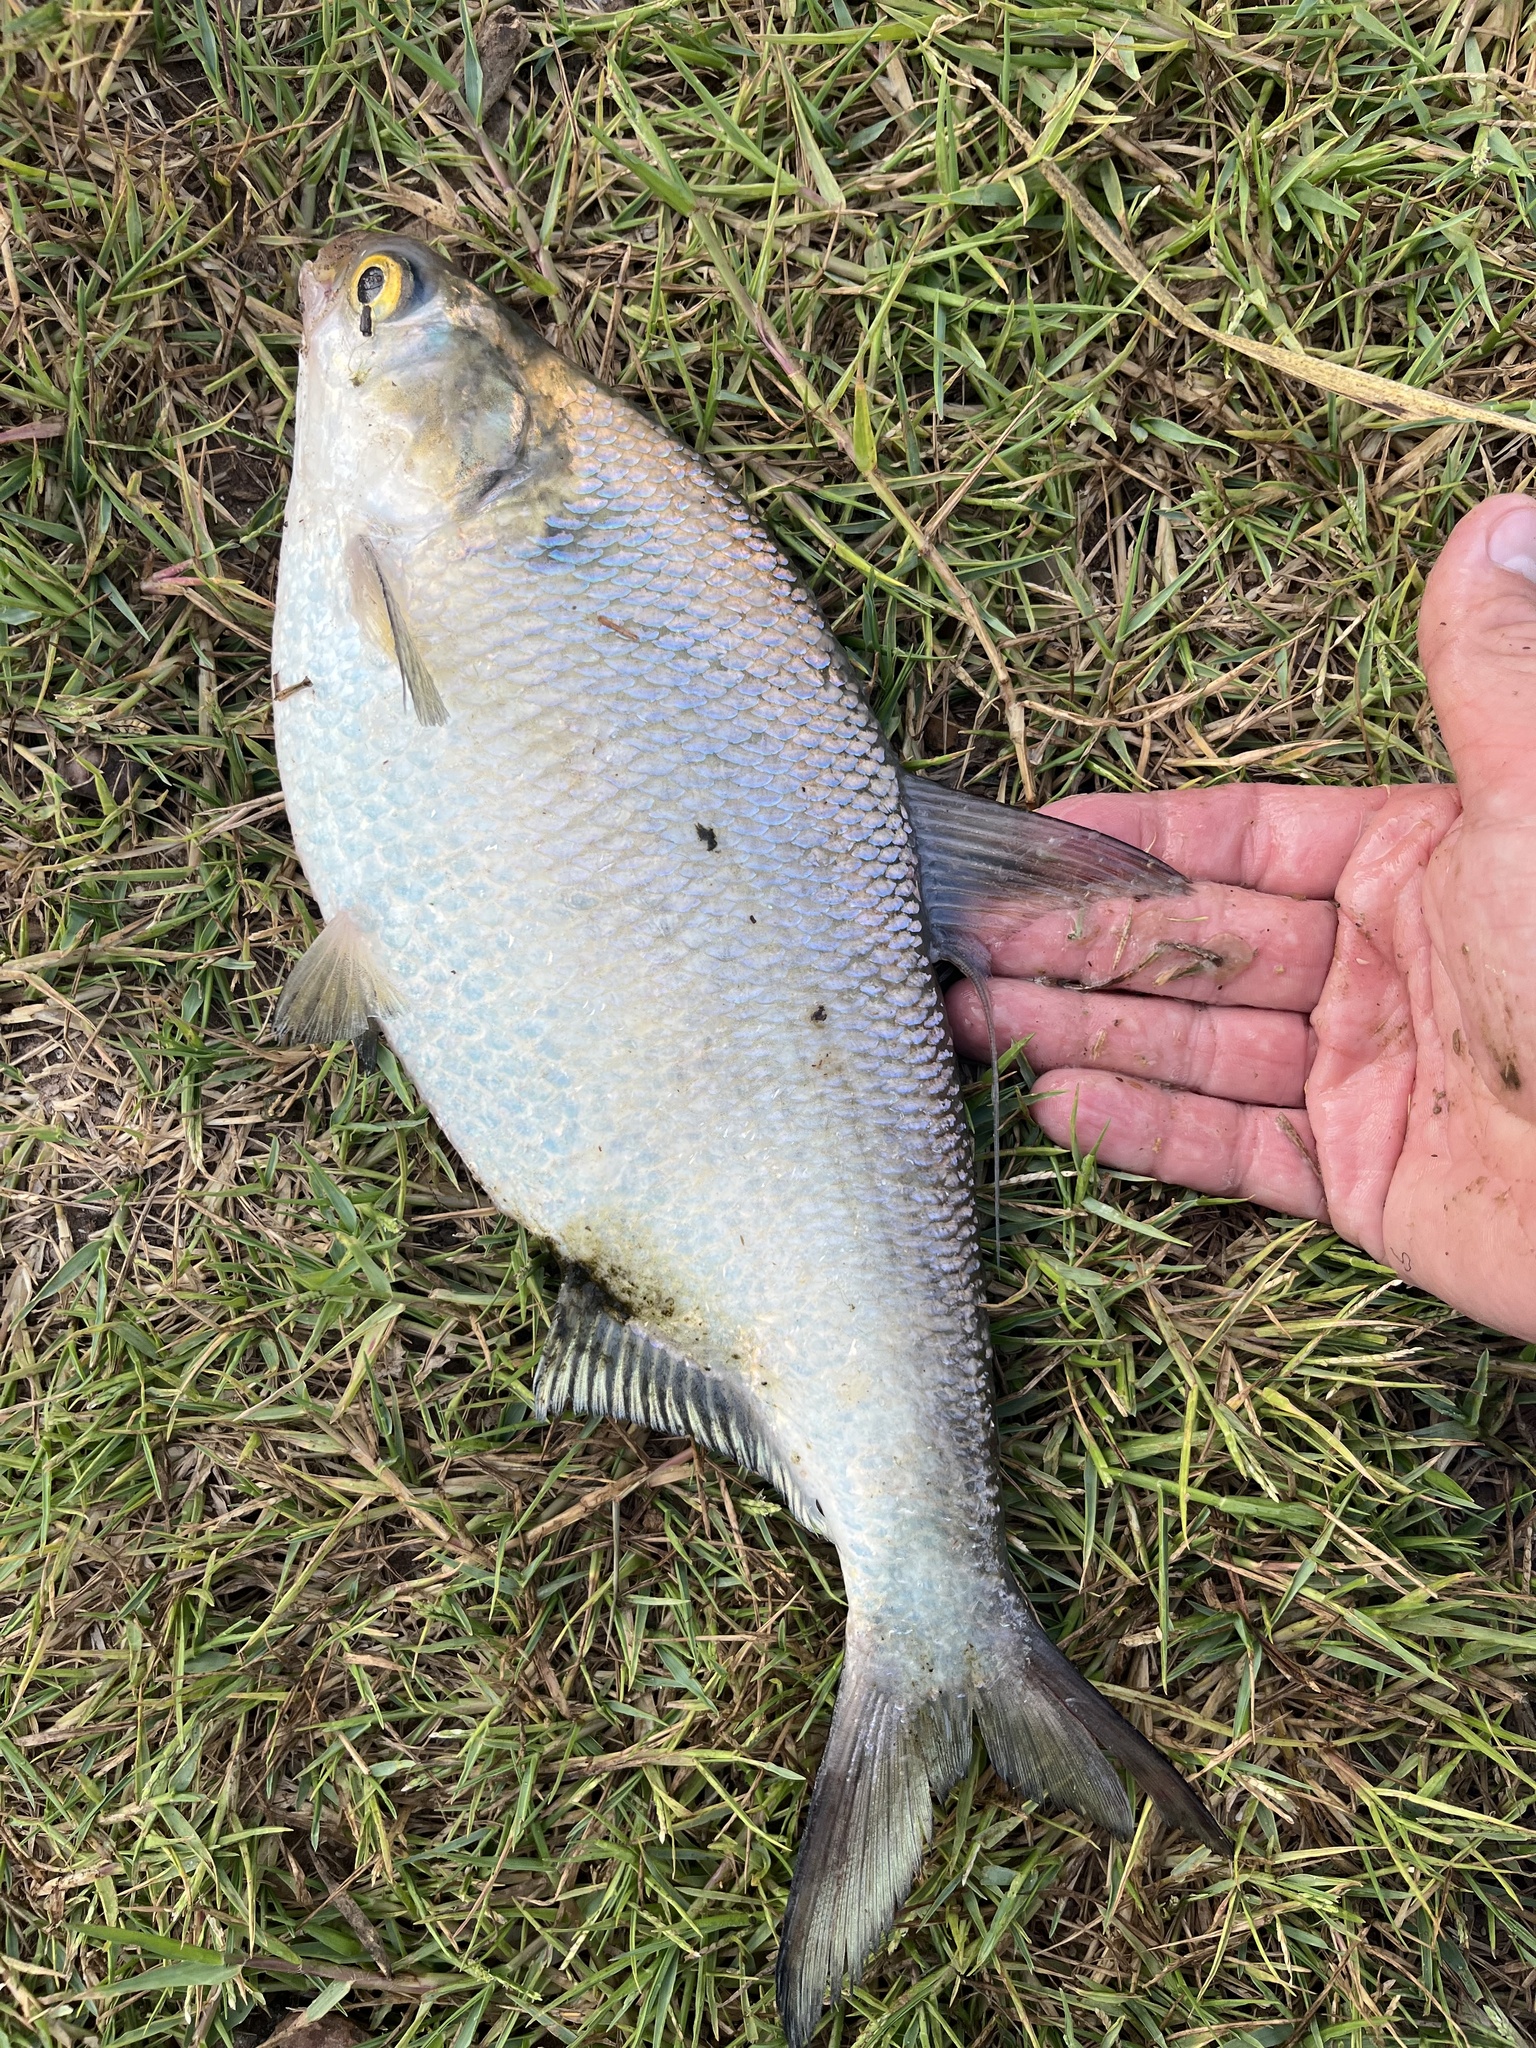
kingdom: Animalia
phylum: Chordata
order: Clupeiformes
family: Clupeidae
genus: Dorosoma
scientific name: Dorosoma cepedianum
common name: Gizzard shad
